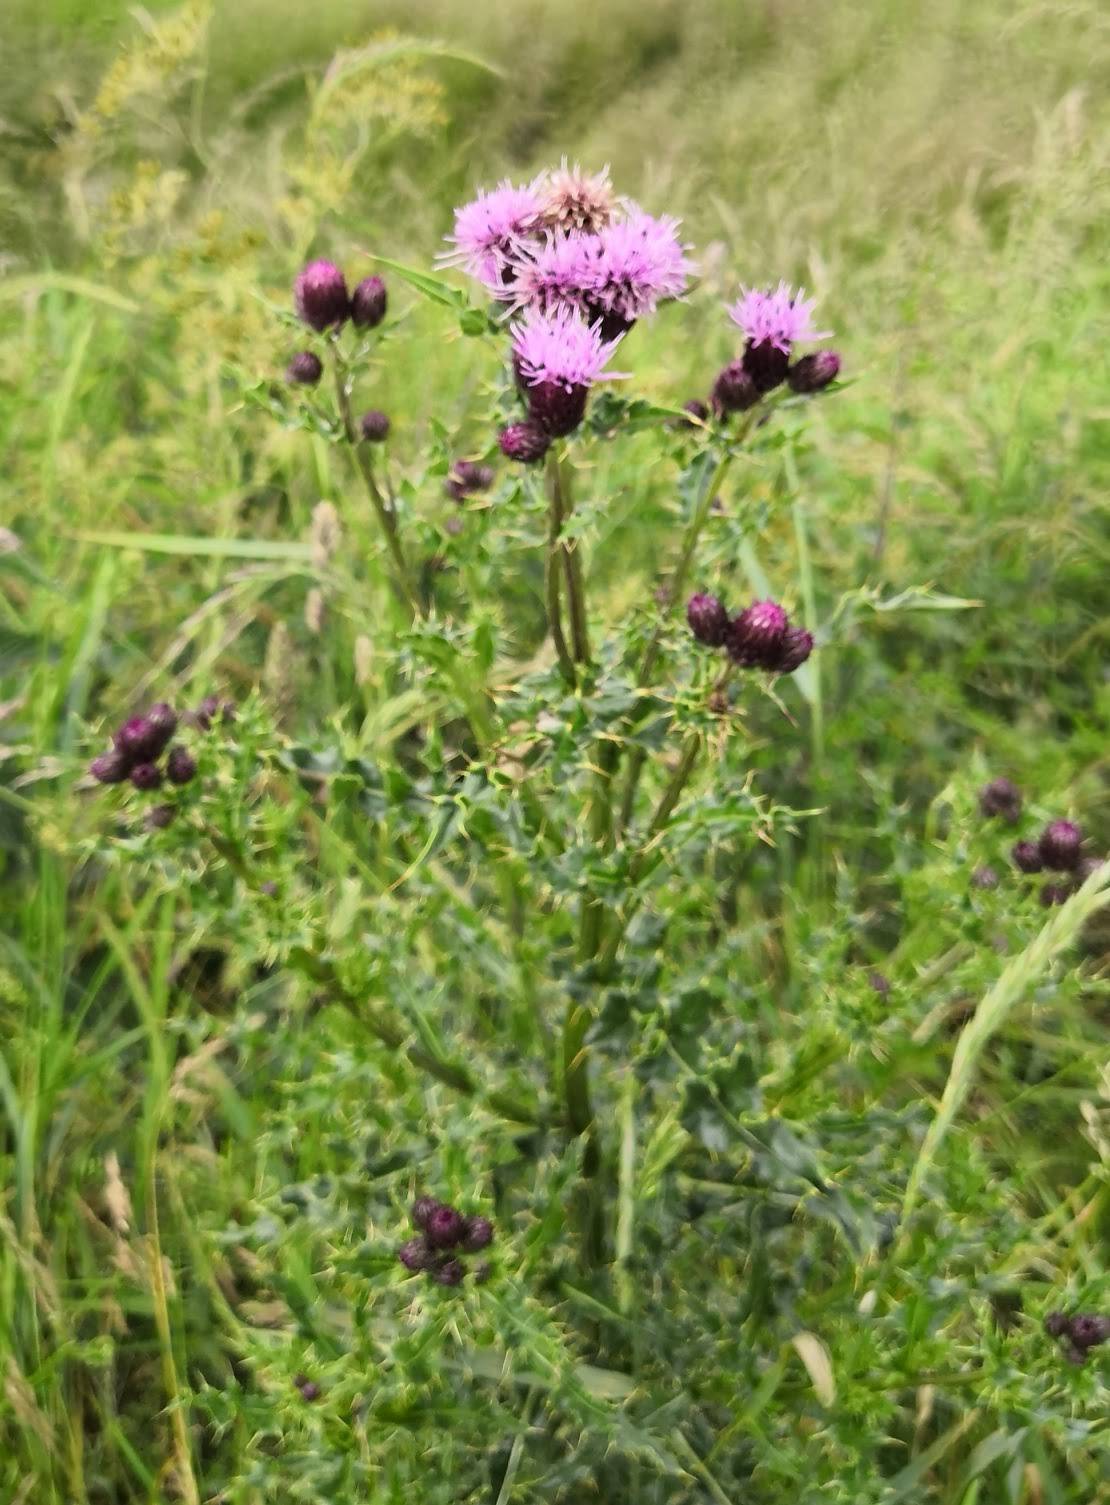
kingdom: Plantae
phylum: Tracheophyta
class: Magnoliopsida
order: Asterales
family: Asteraceae
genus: Cirsium
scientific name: Cirsium arvense
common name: Creeping thistle
